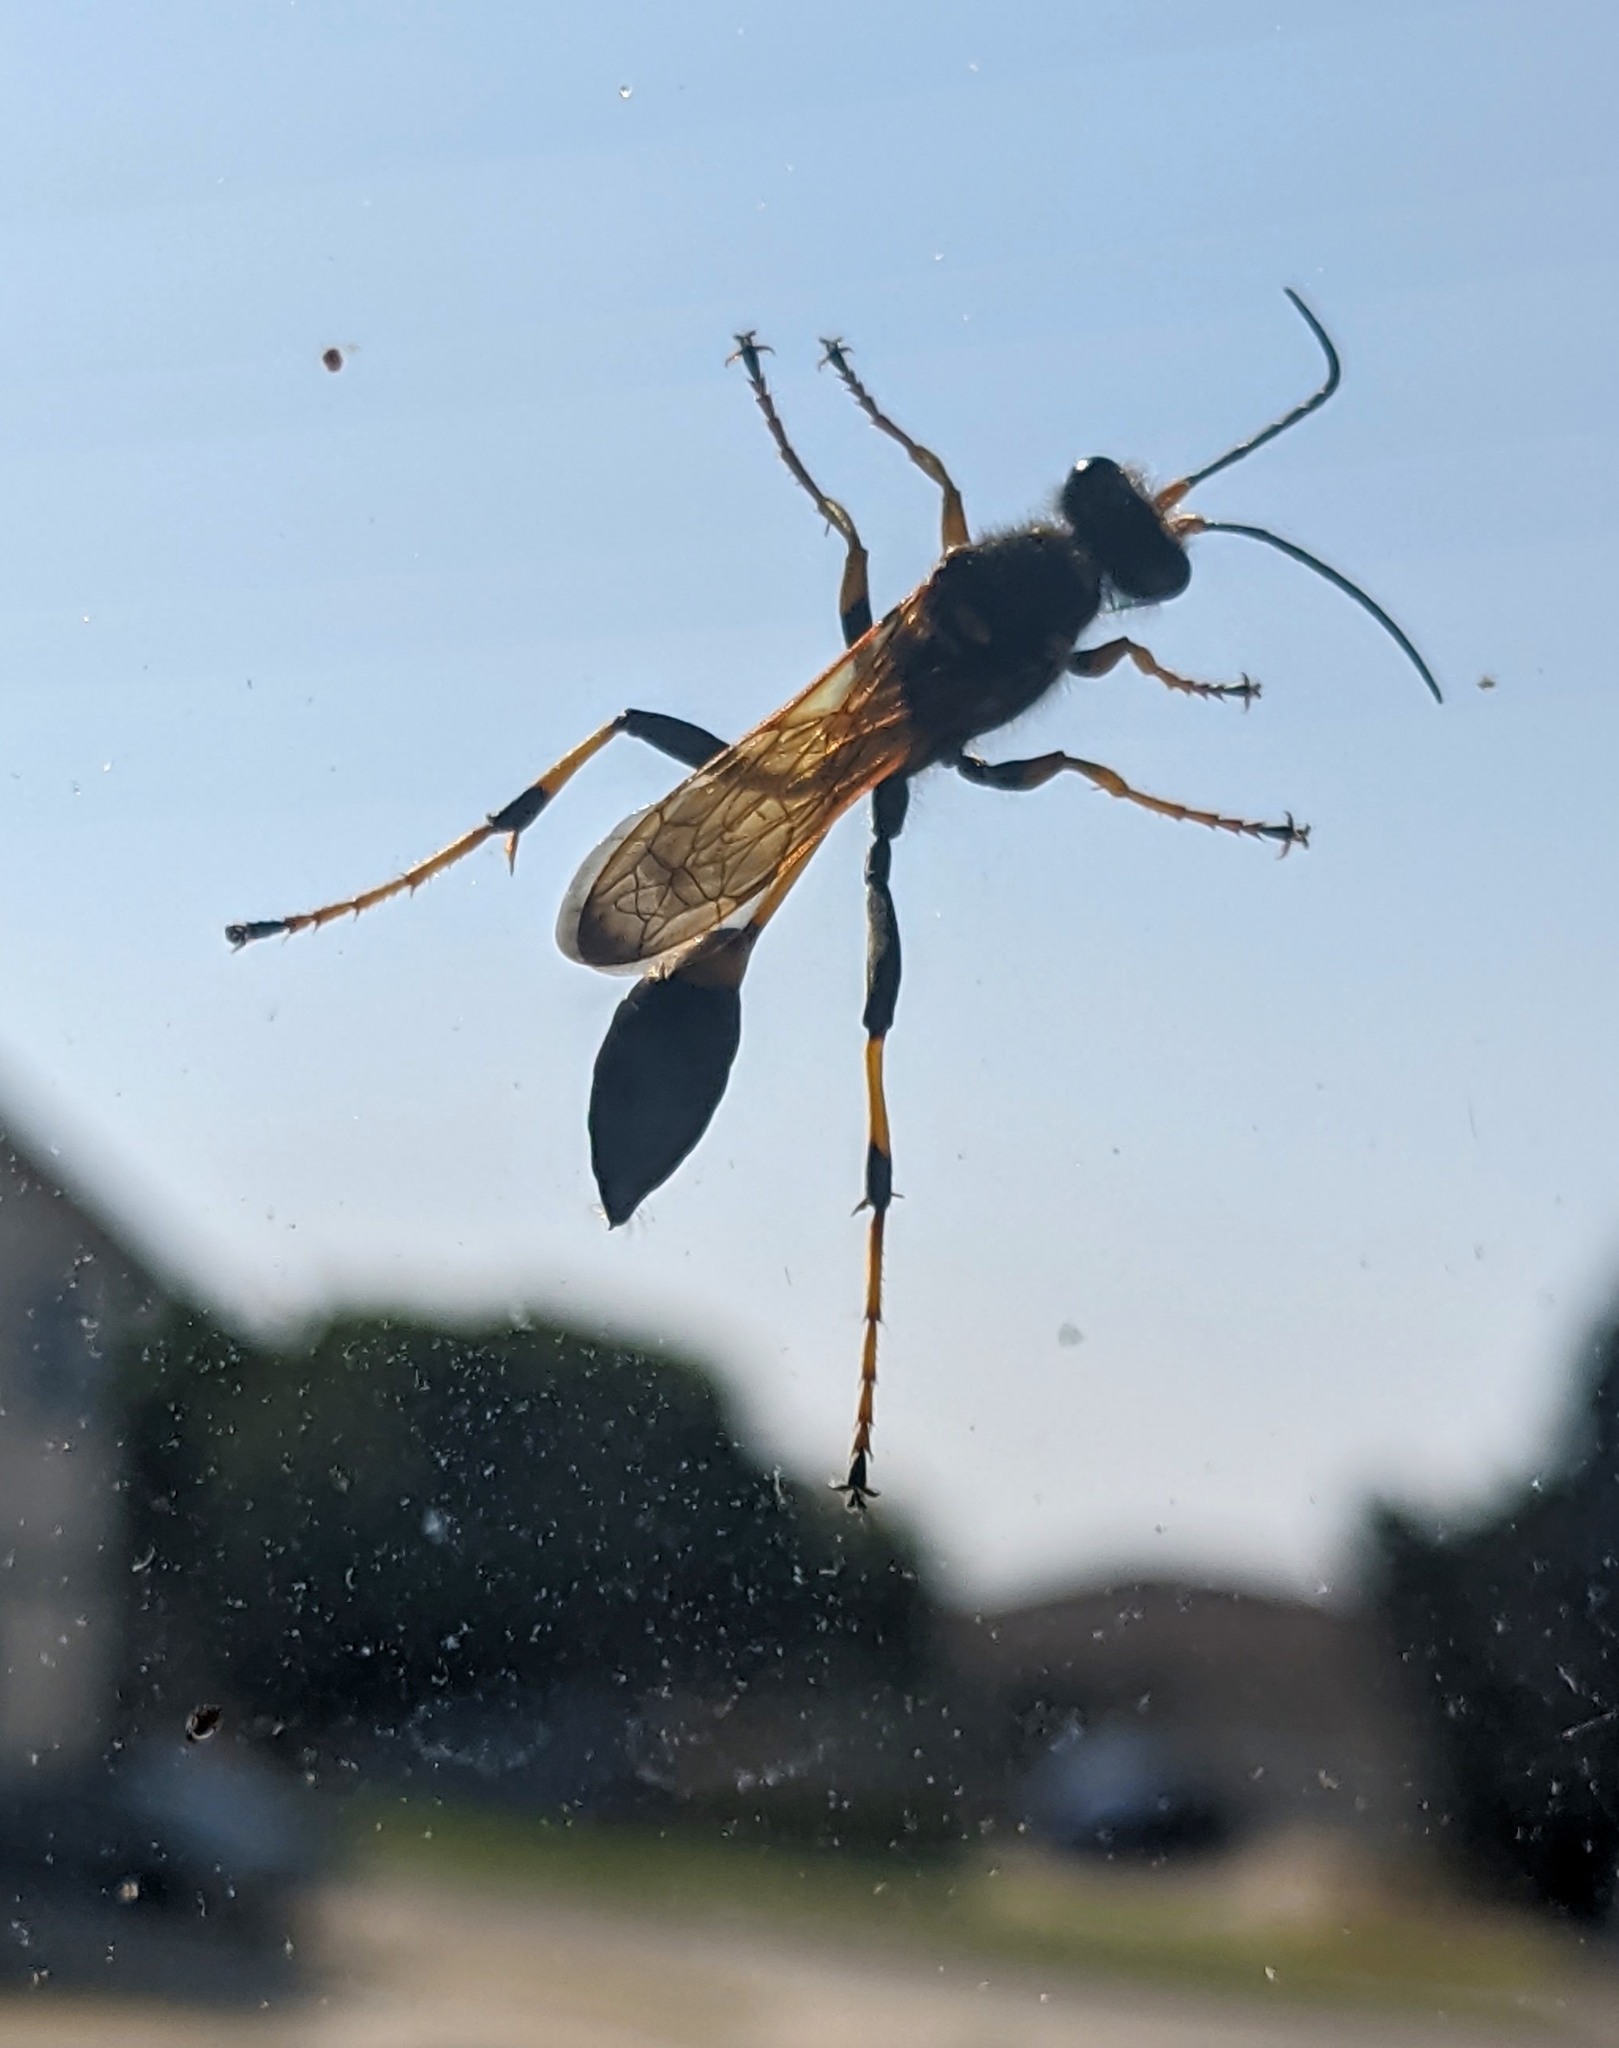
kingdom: Animalia
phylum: Arthropoda
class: Insecta
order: Hymenoptera
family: Sphecidae
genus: Sceliphron
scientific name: Sceliphron caementarium
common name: Mud dauber
